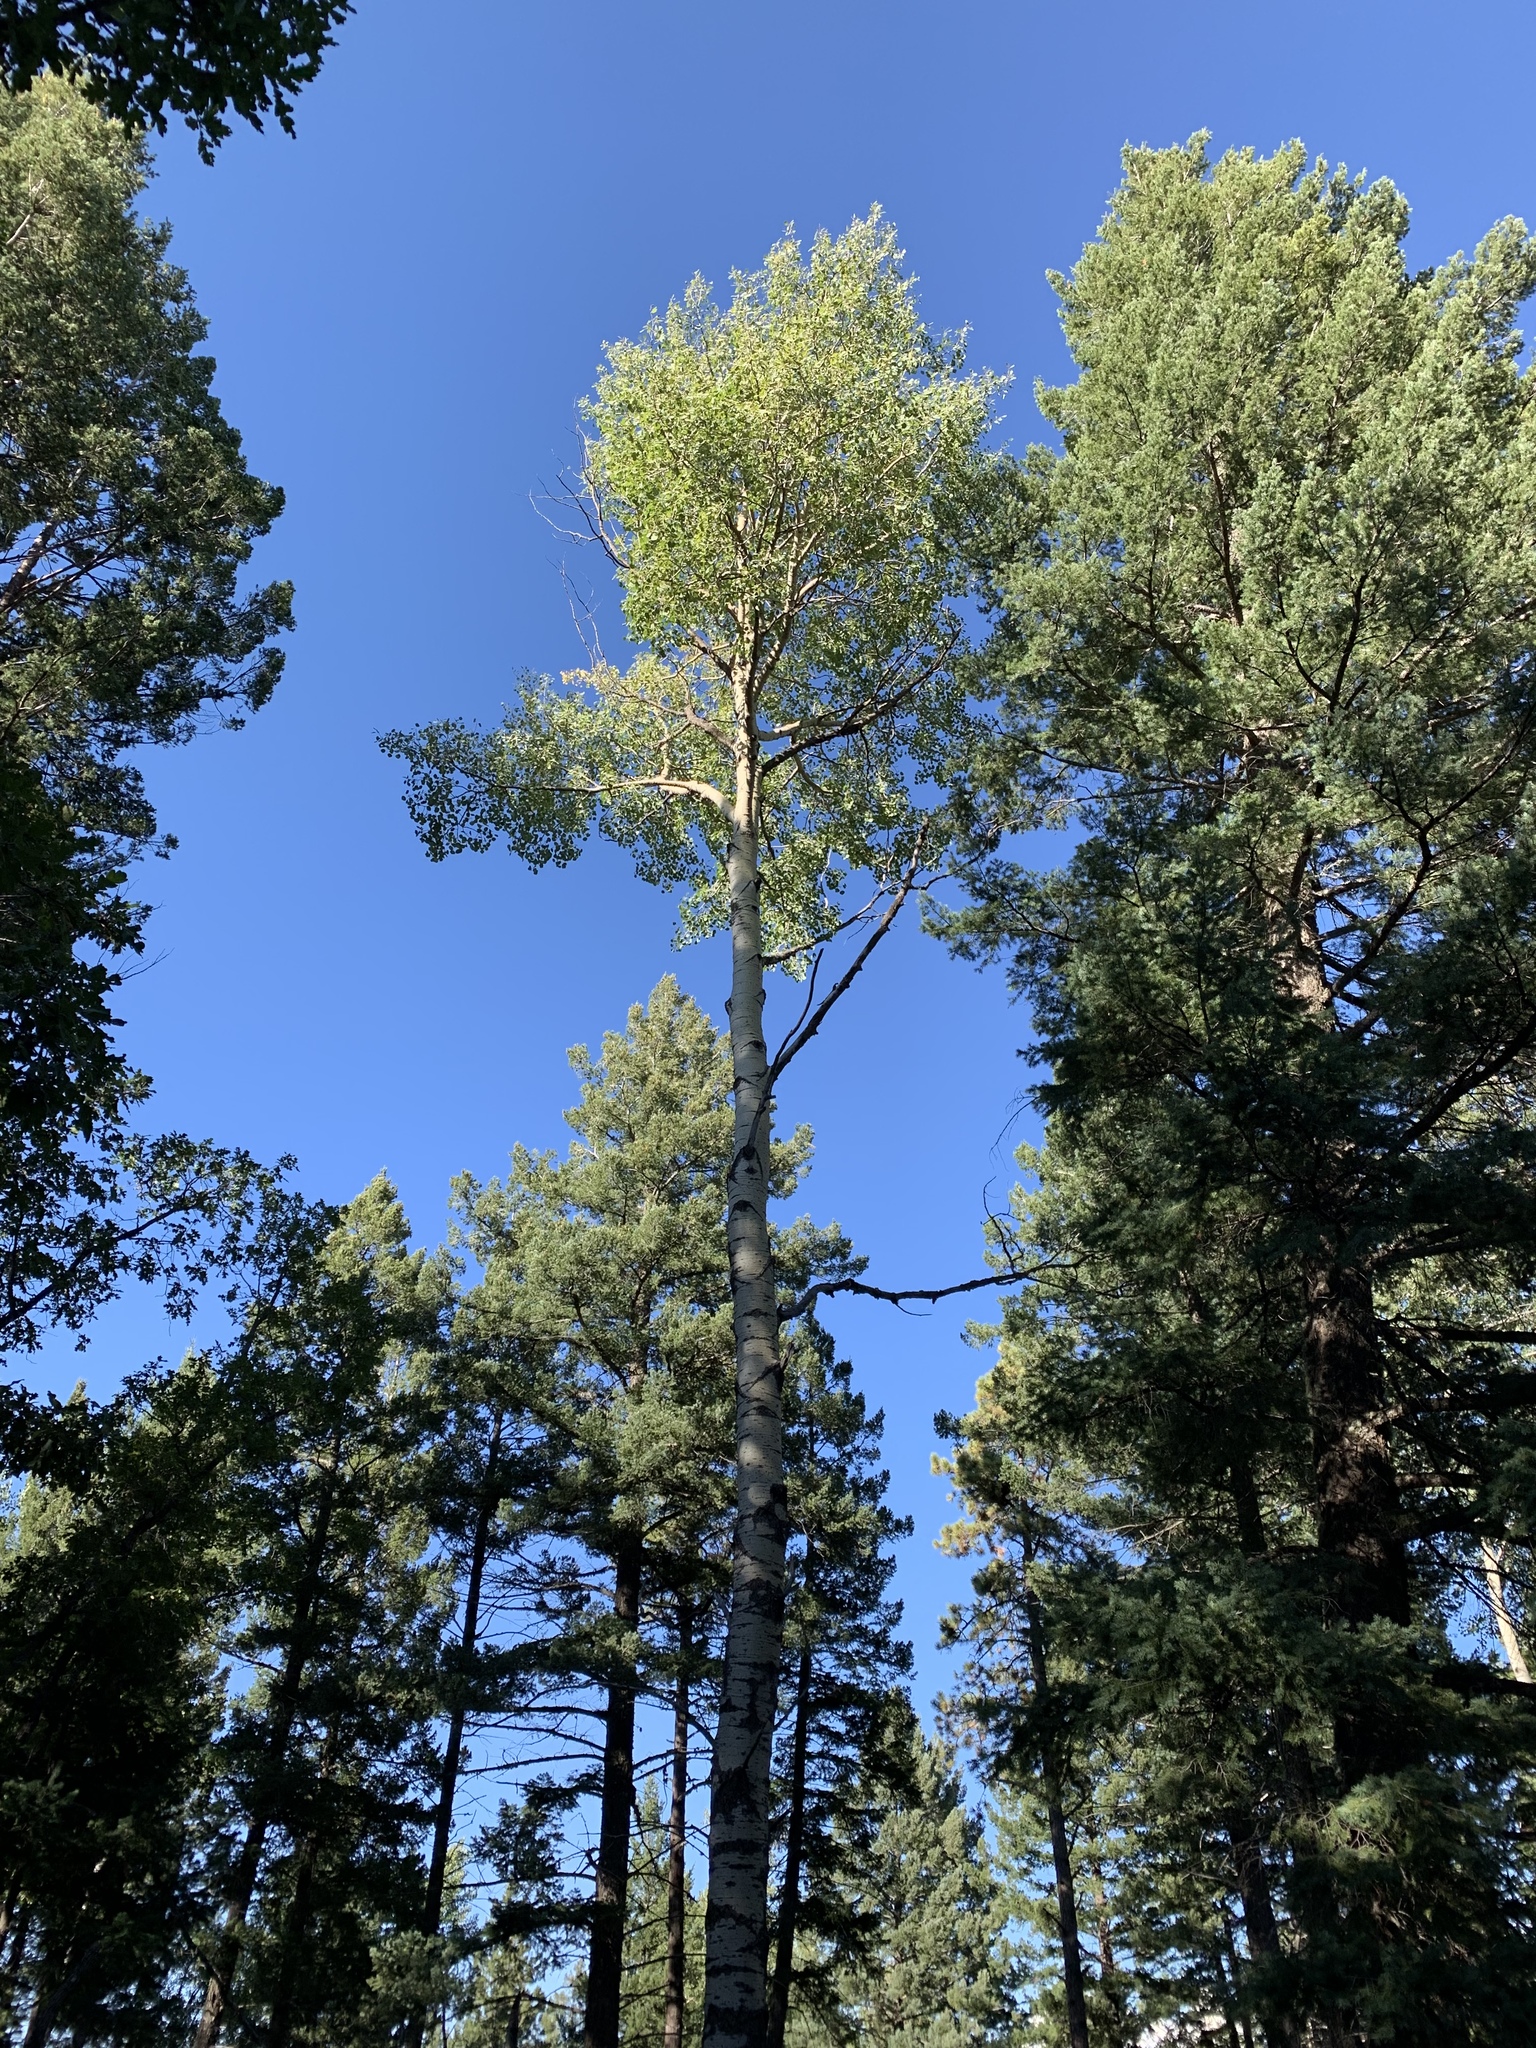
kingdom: Plantae
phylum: Tracheophyta
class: Magnoliopsida
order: Malpighiales
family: Salicaceae
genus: Populus
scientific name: Populus tremuloides
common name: Quaking aspen
